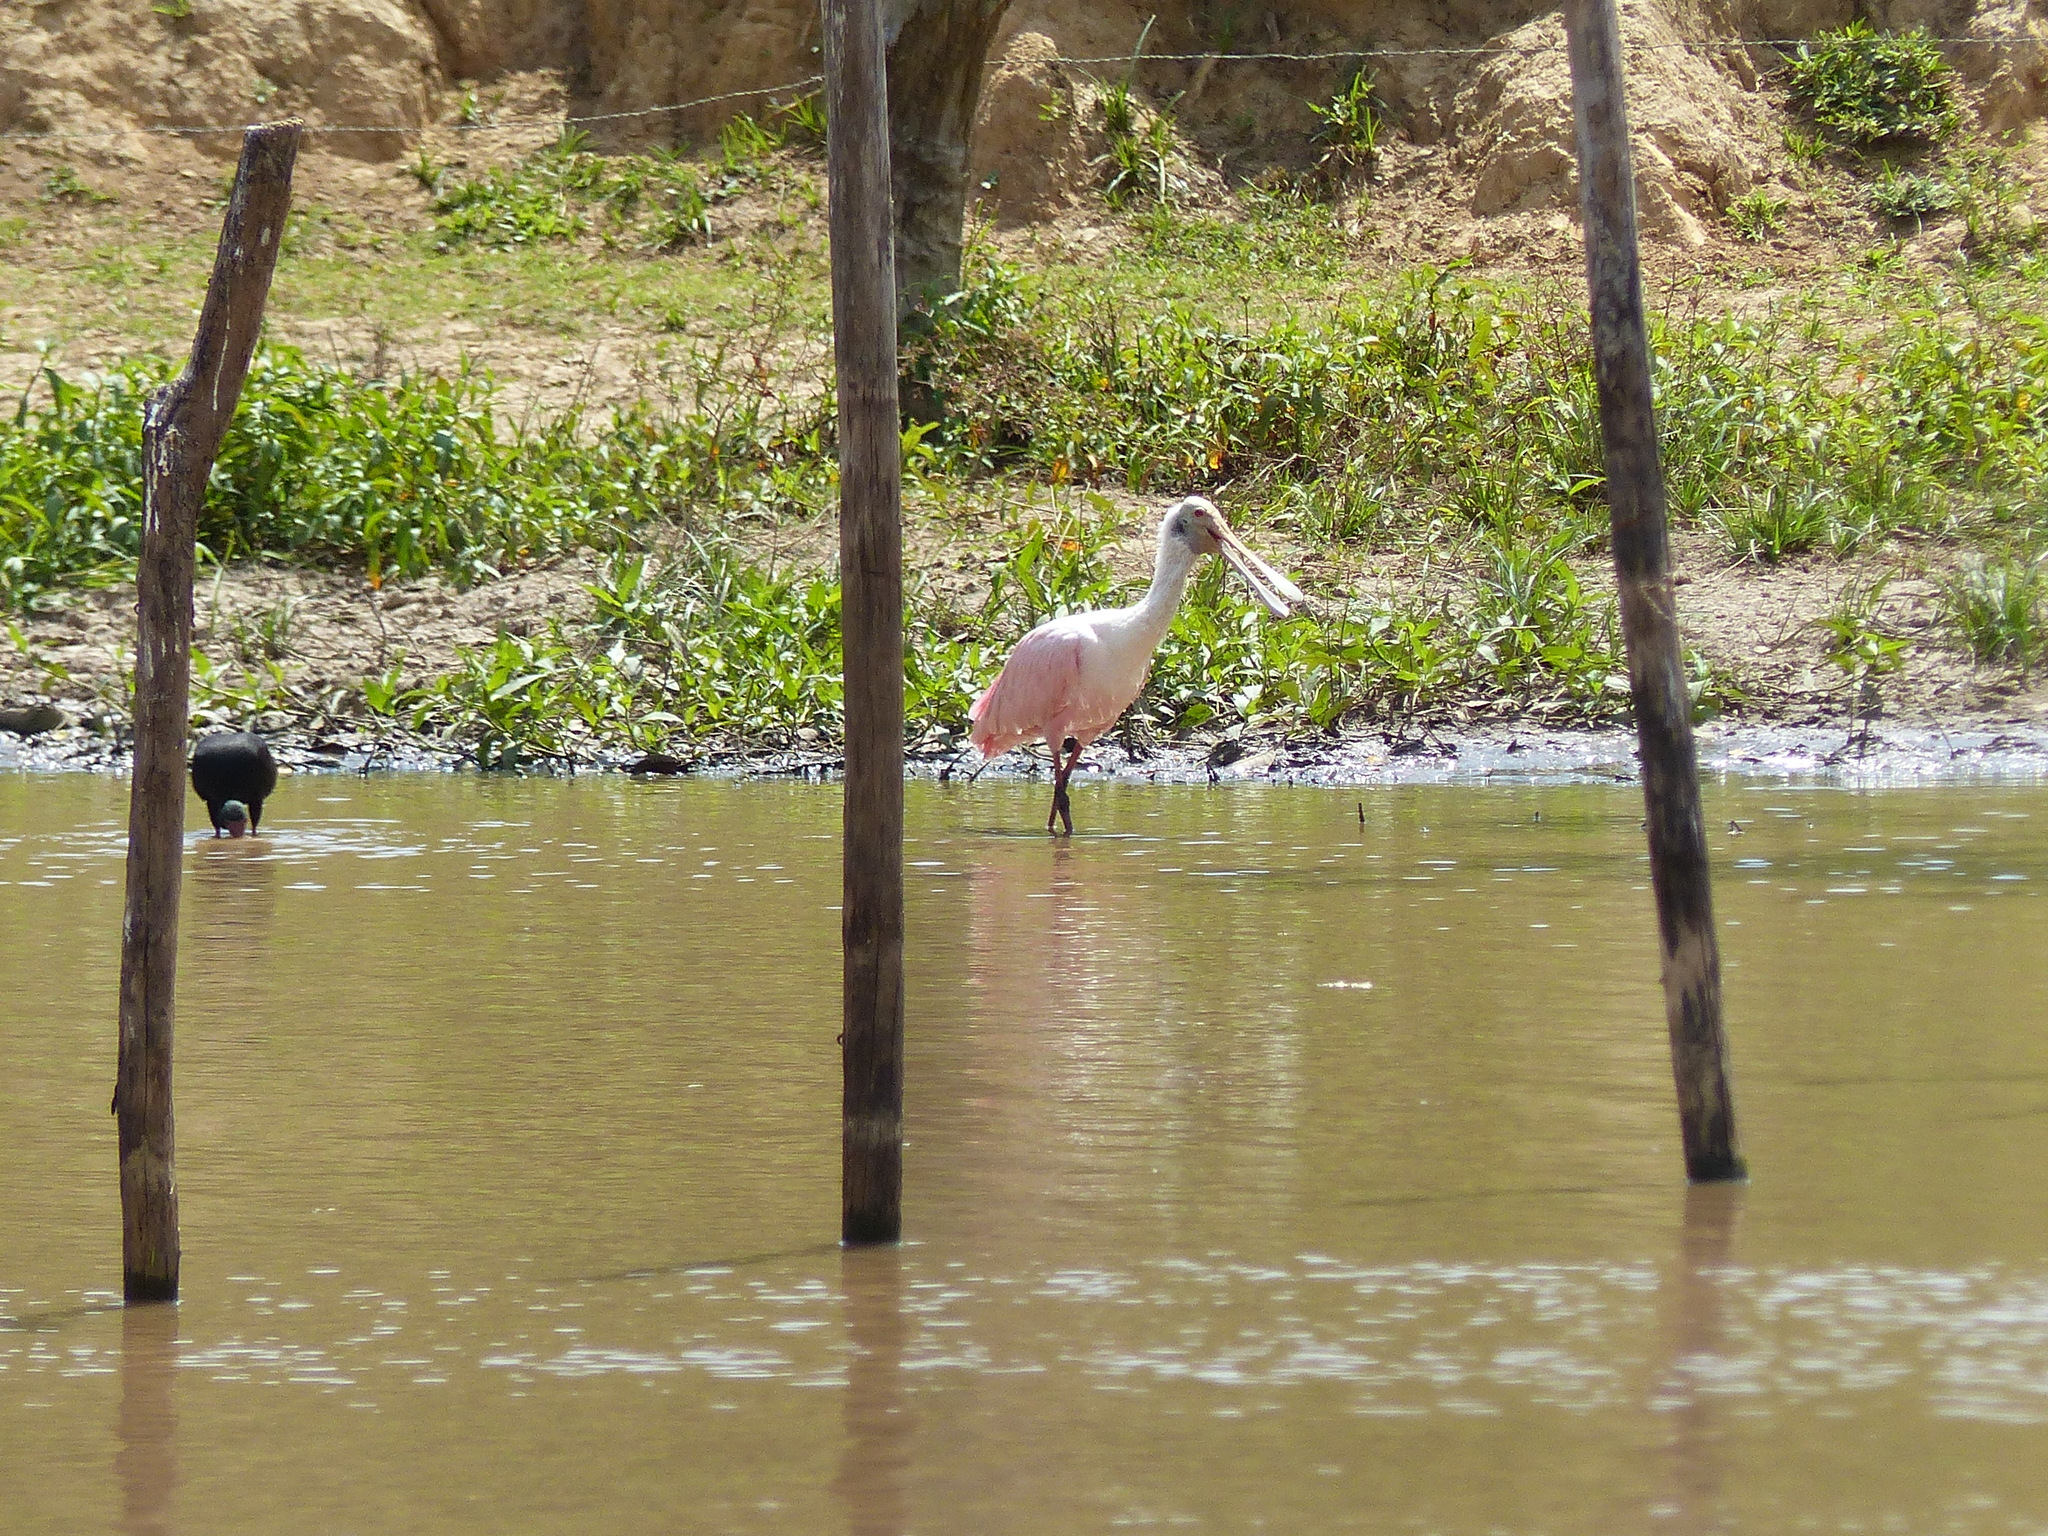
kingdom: Animalia
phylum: Chordata
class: Aves
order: Pelecaniformes
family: Threskiornithidae
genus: Platalea
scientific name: Platalea ajaja
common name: Roseate spoonbill
